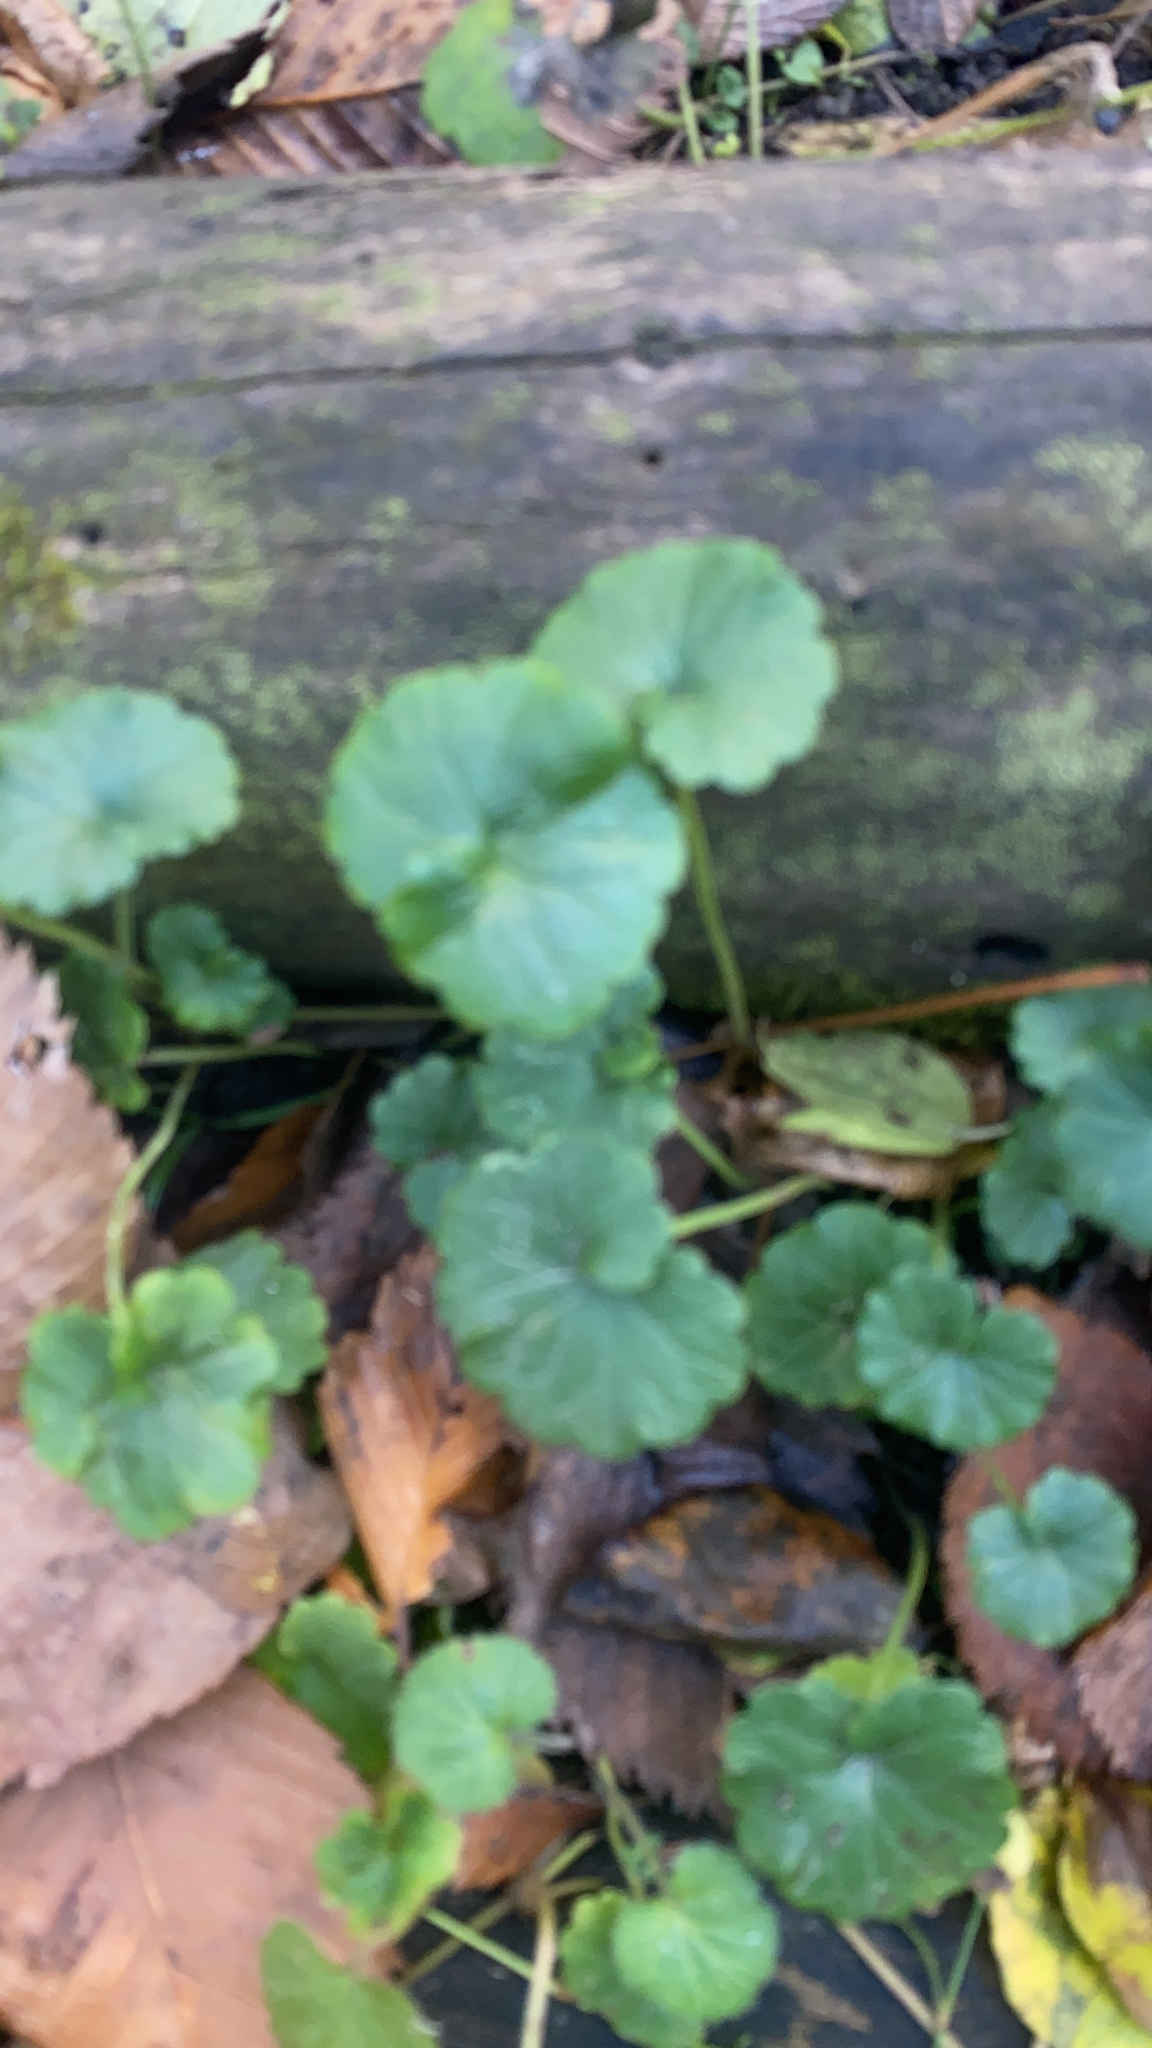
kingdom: Plantae
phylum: Tracheophyta
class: Magnoliopsida
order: Lamiales
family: Lamiaceae
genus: Glechoma
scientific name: Glechoma hederacea
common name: Ground ivy
